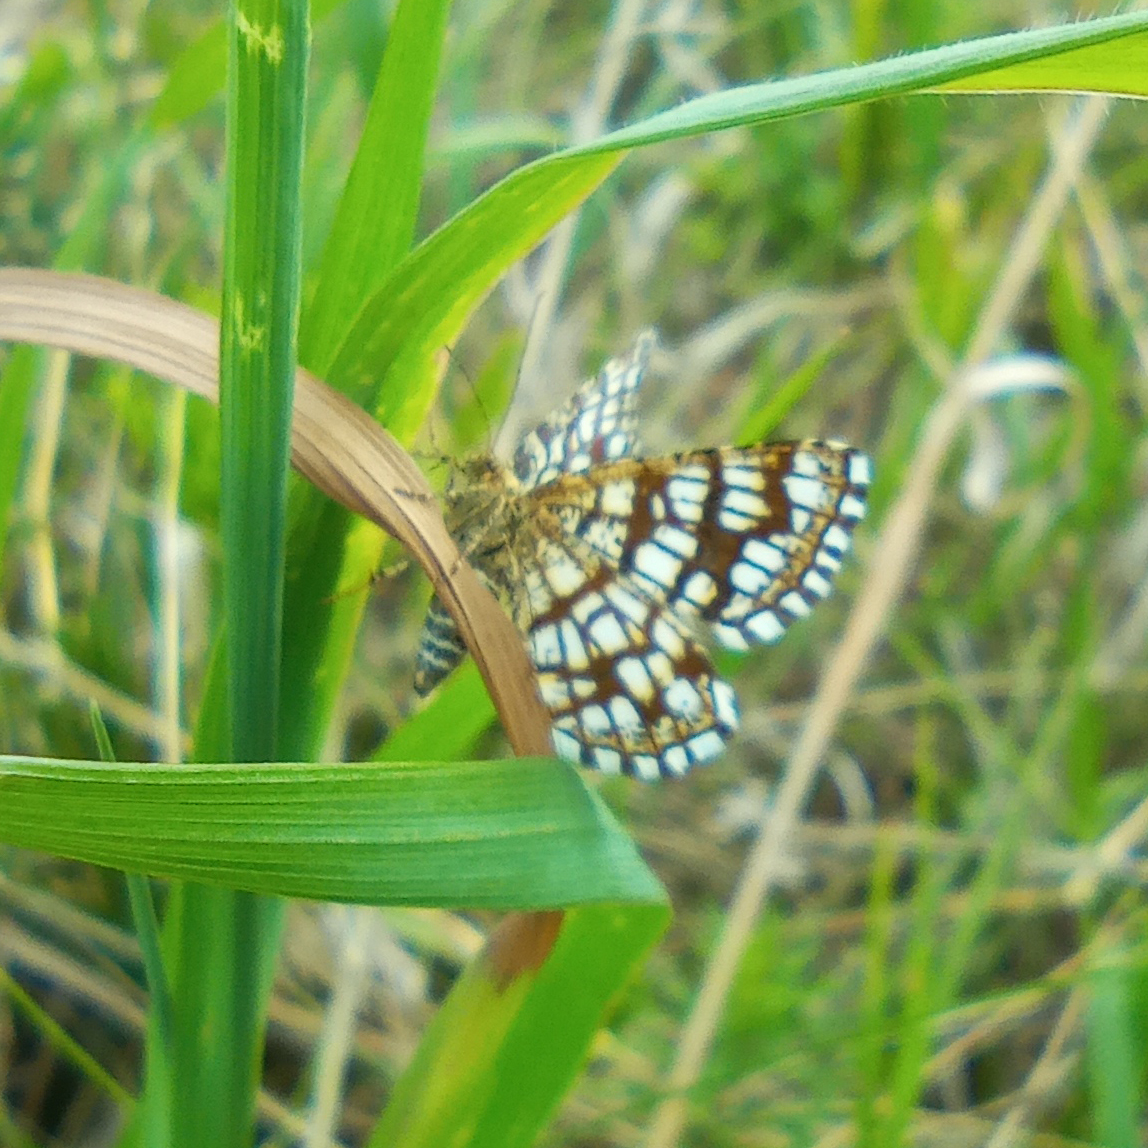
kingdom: Animalia
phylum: Arthropoda
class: Insecta
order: Lepidoptera
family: Geometridae
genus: Chiasmia
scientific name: Chiasmia clathrata
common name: Latticed heath
